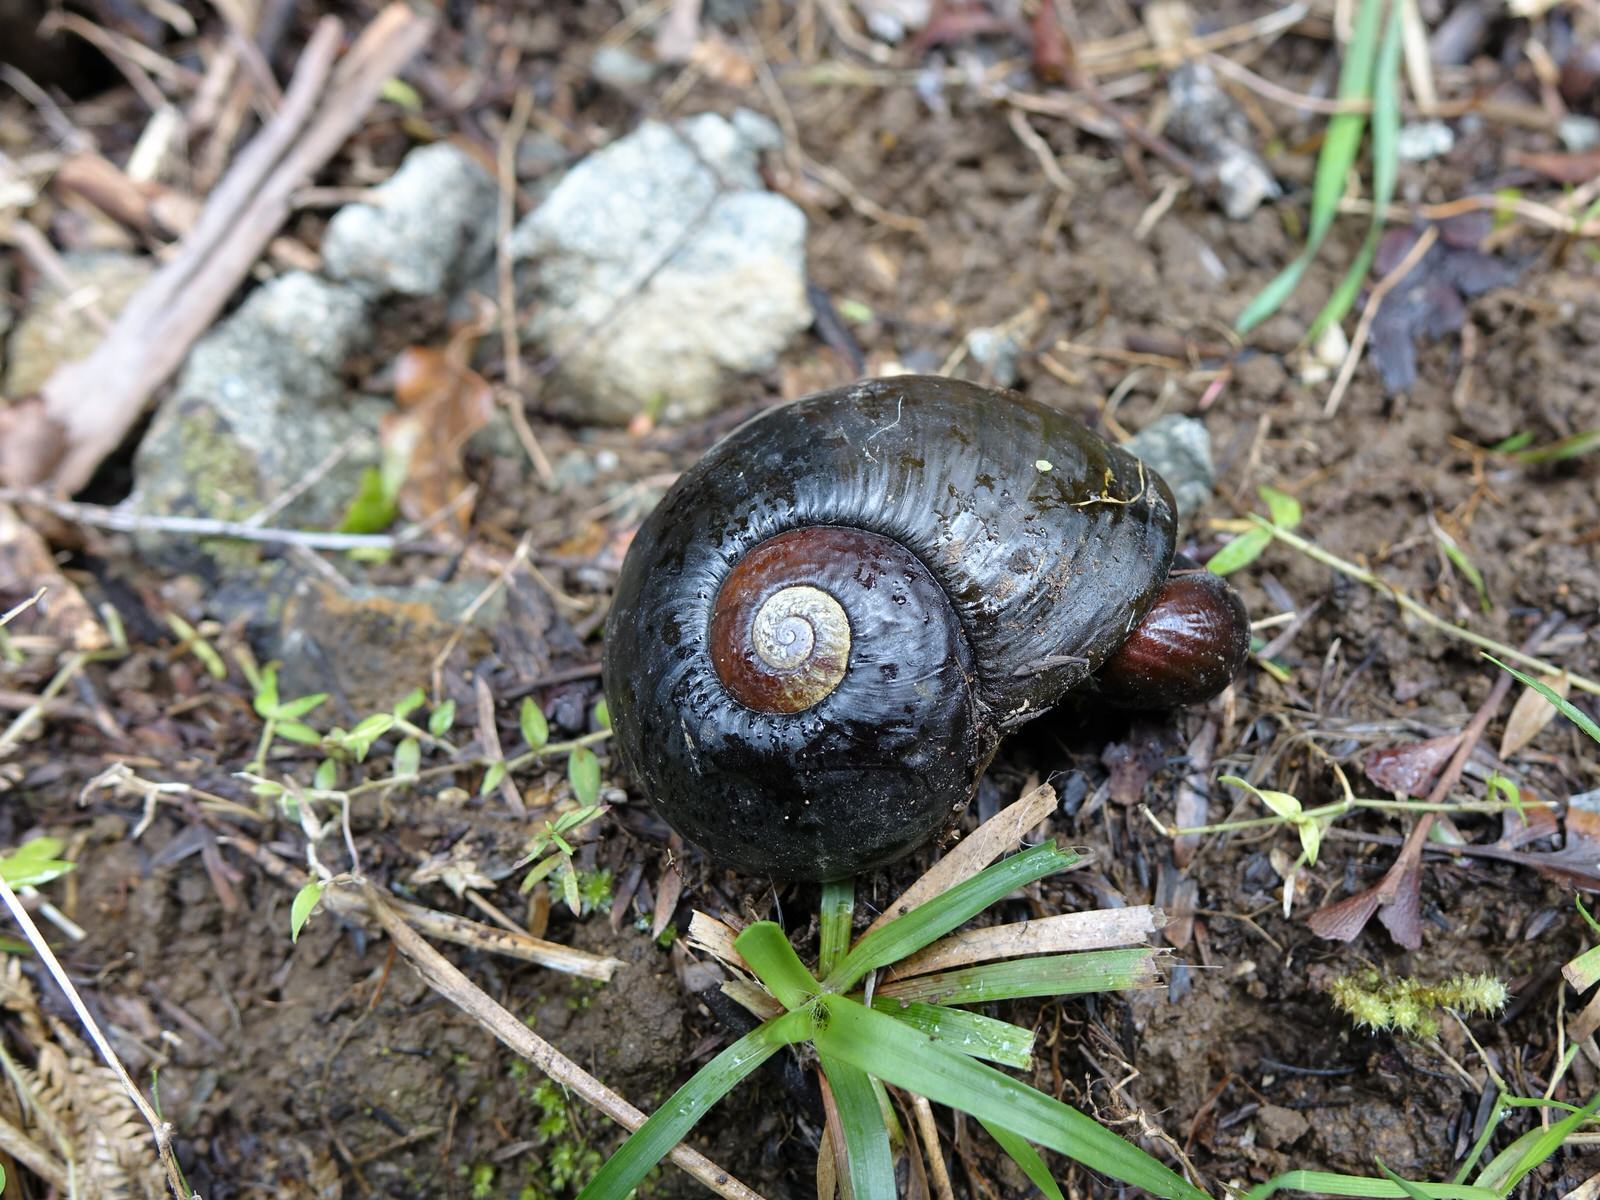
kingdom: Animalia
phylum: Mollusca
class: Gastropoda
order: Stylommatophora
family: Rhytididae
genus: Paryphanta
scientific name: Paryphanta busbyi
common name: Kauri snail
